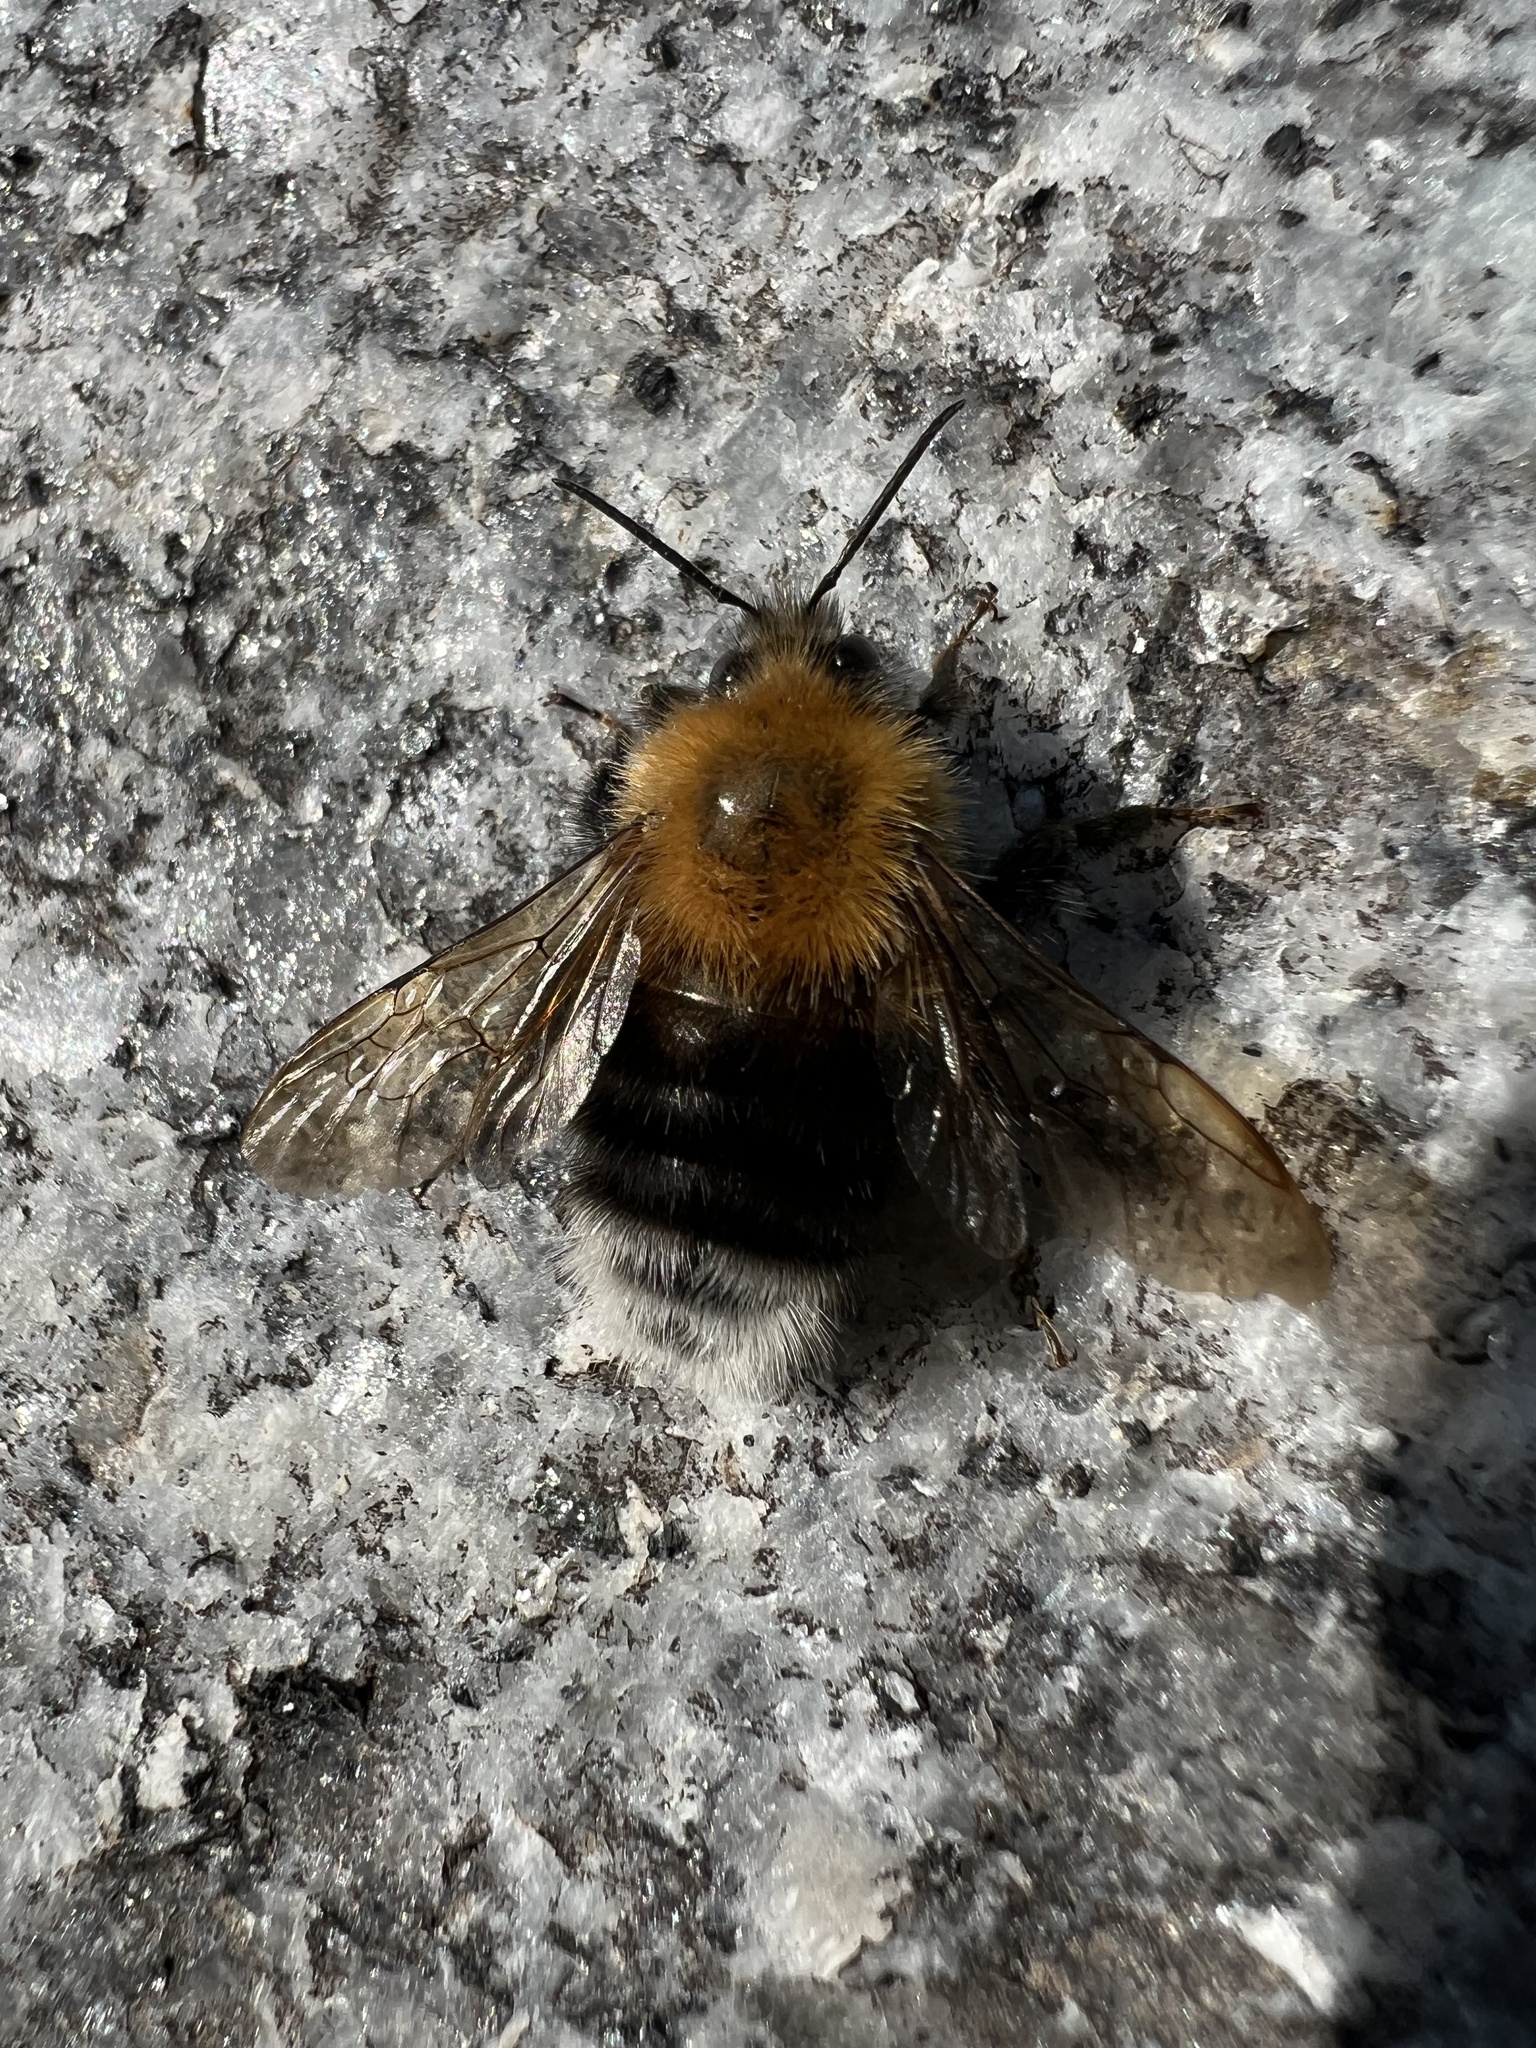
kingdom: Animalia
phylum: Arthropoda
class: Insecta
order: Hymenoptera
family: Apidae
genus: Bombus
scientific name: Bombus hypnorum
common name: New garden bumblebee
